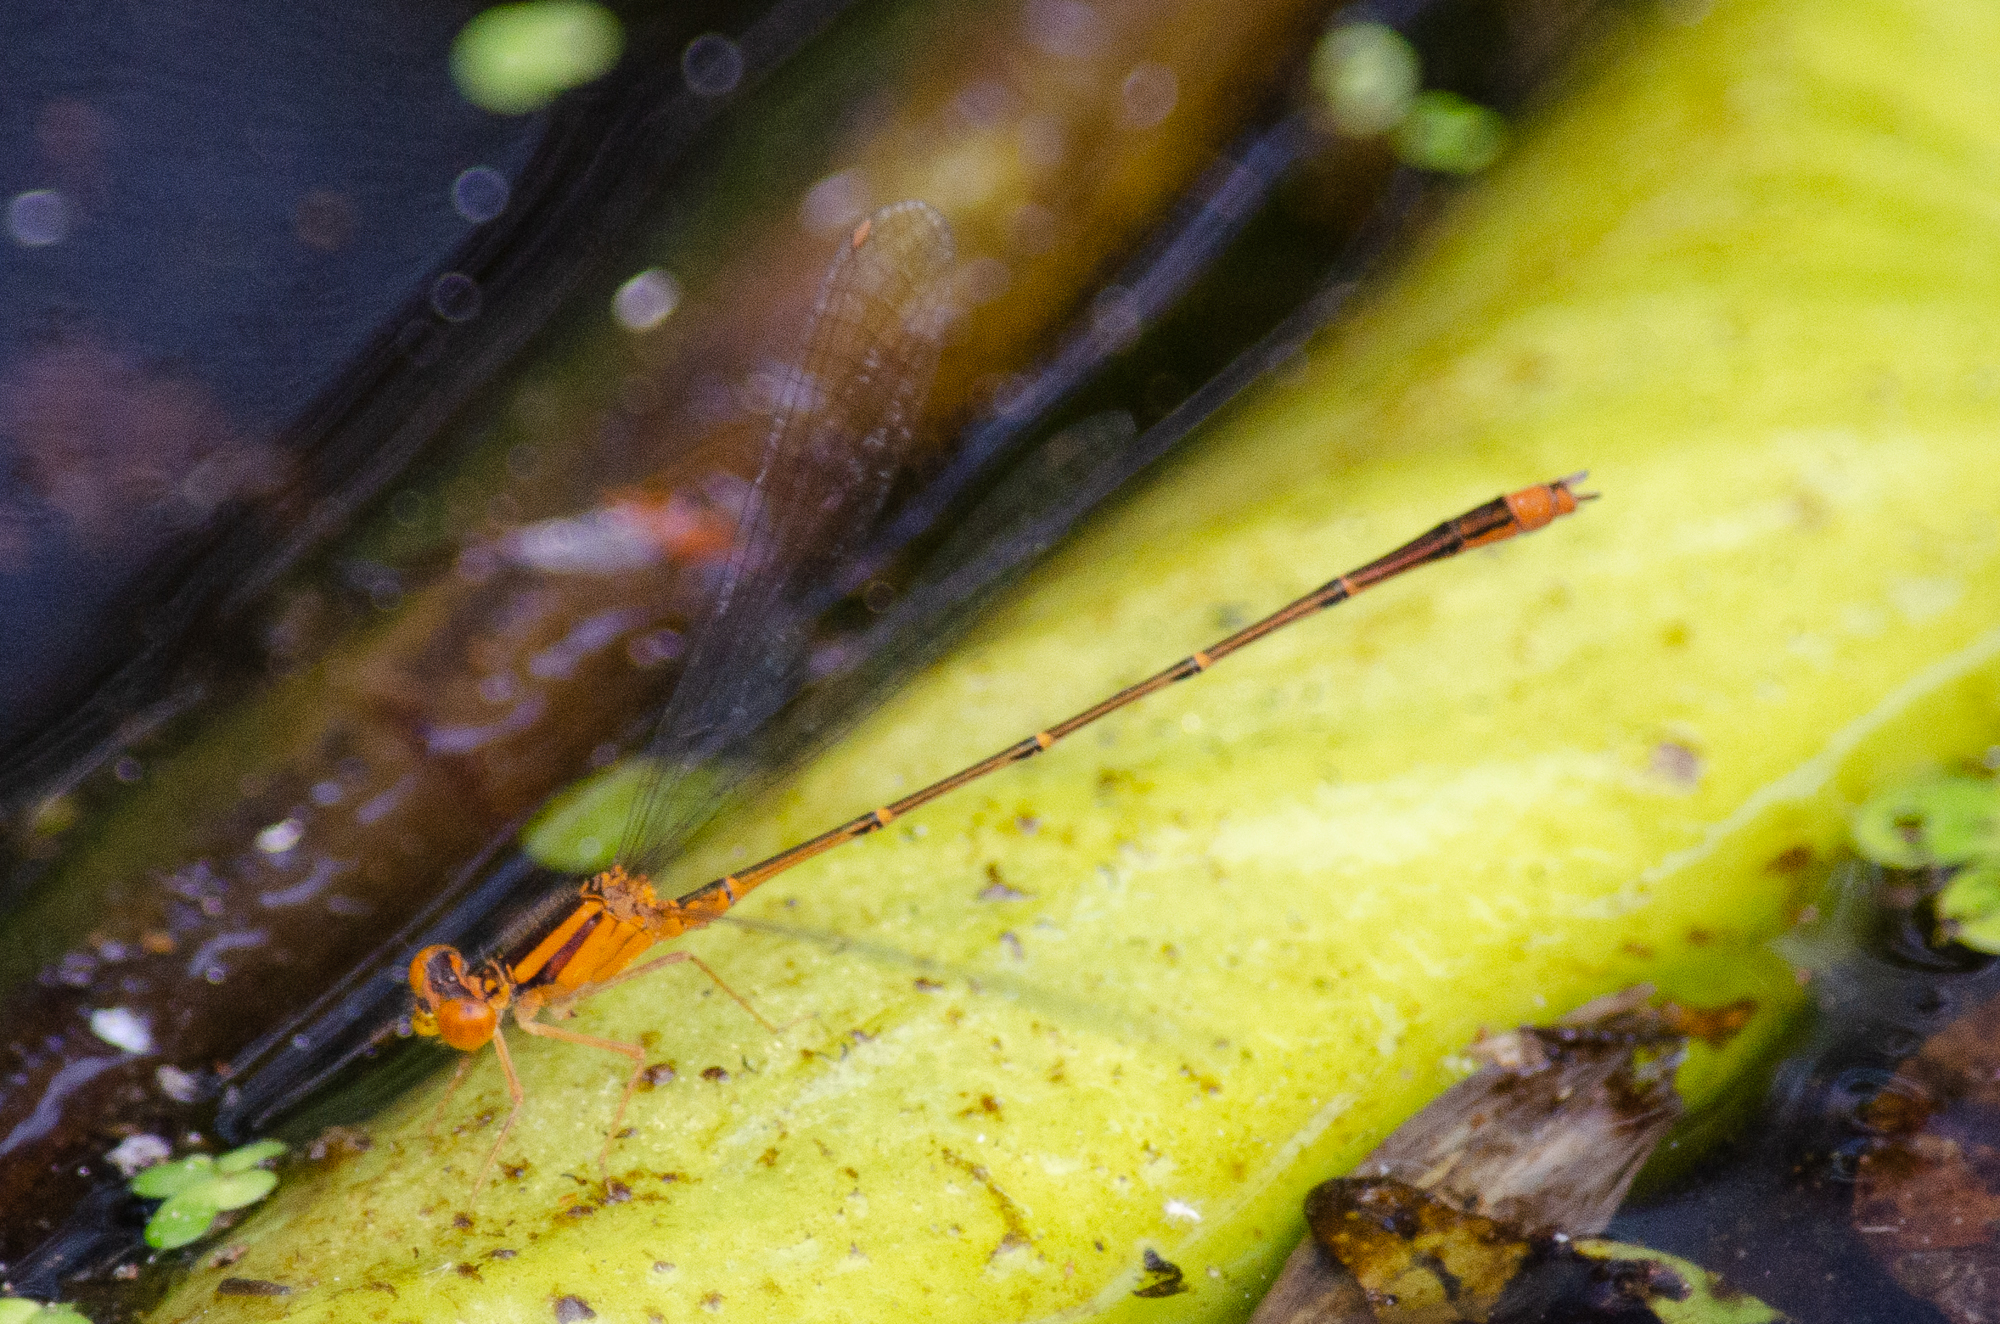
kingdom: Animalia
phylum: Arthropoda
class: Insecta
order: Odonata
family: Coenagrionidae
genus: Enallagma
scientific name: Enallagma signatum
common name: Orange bluet
